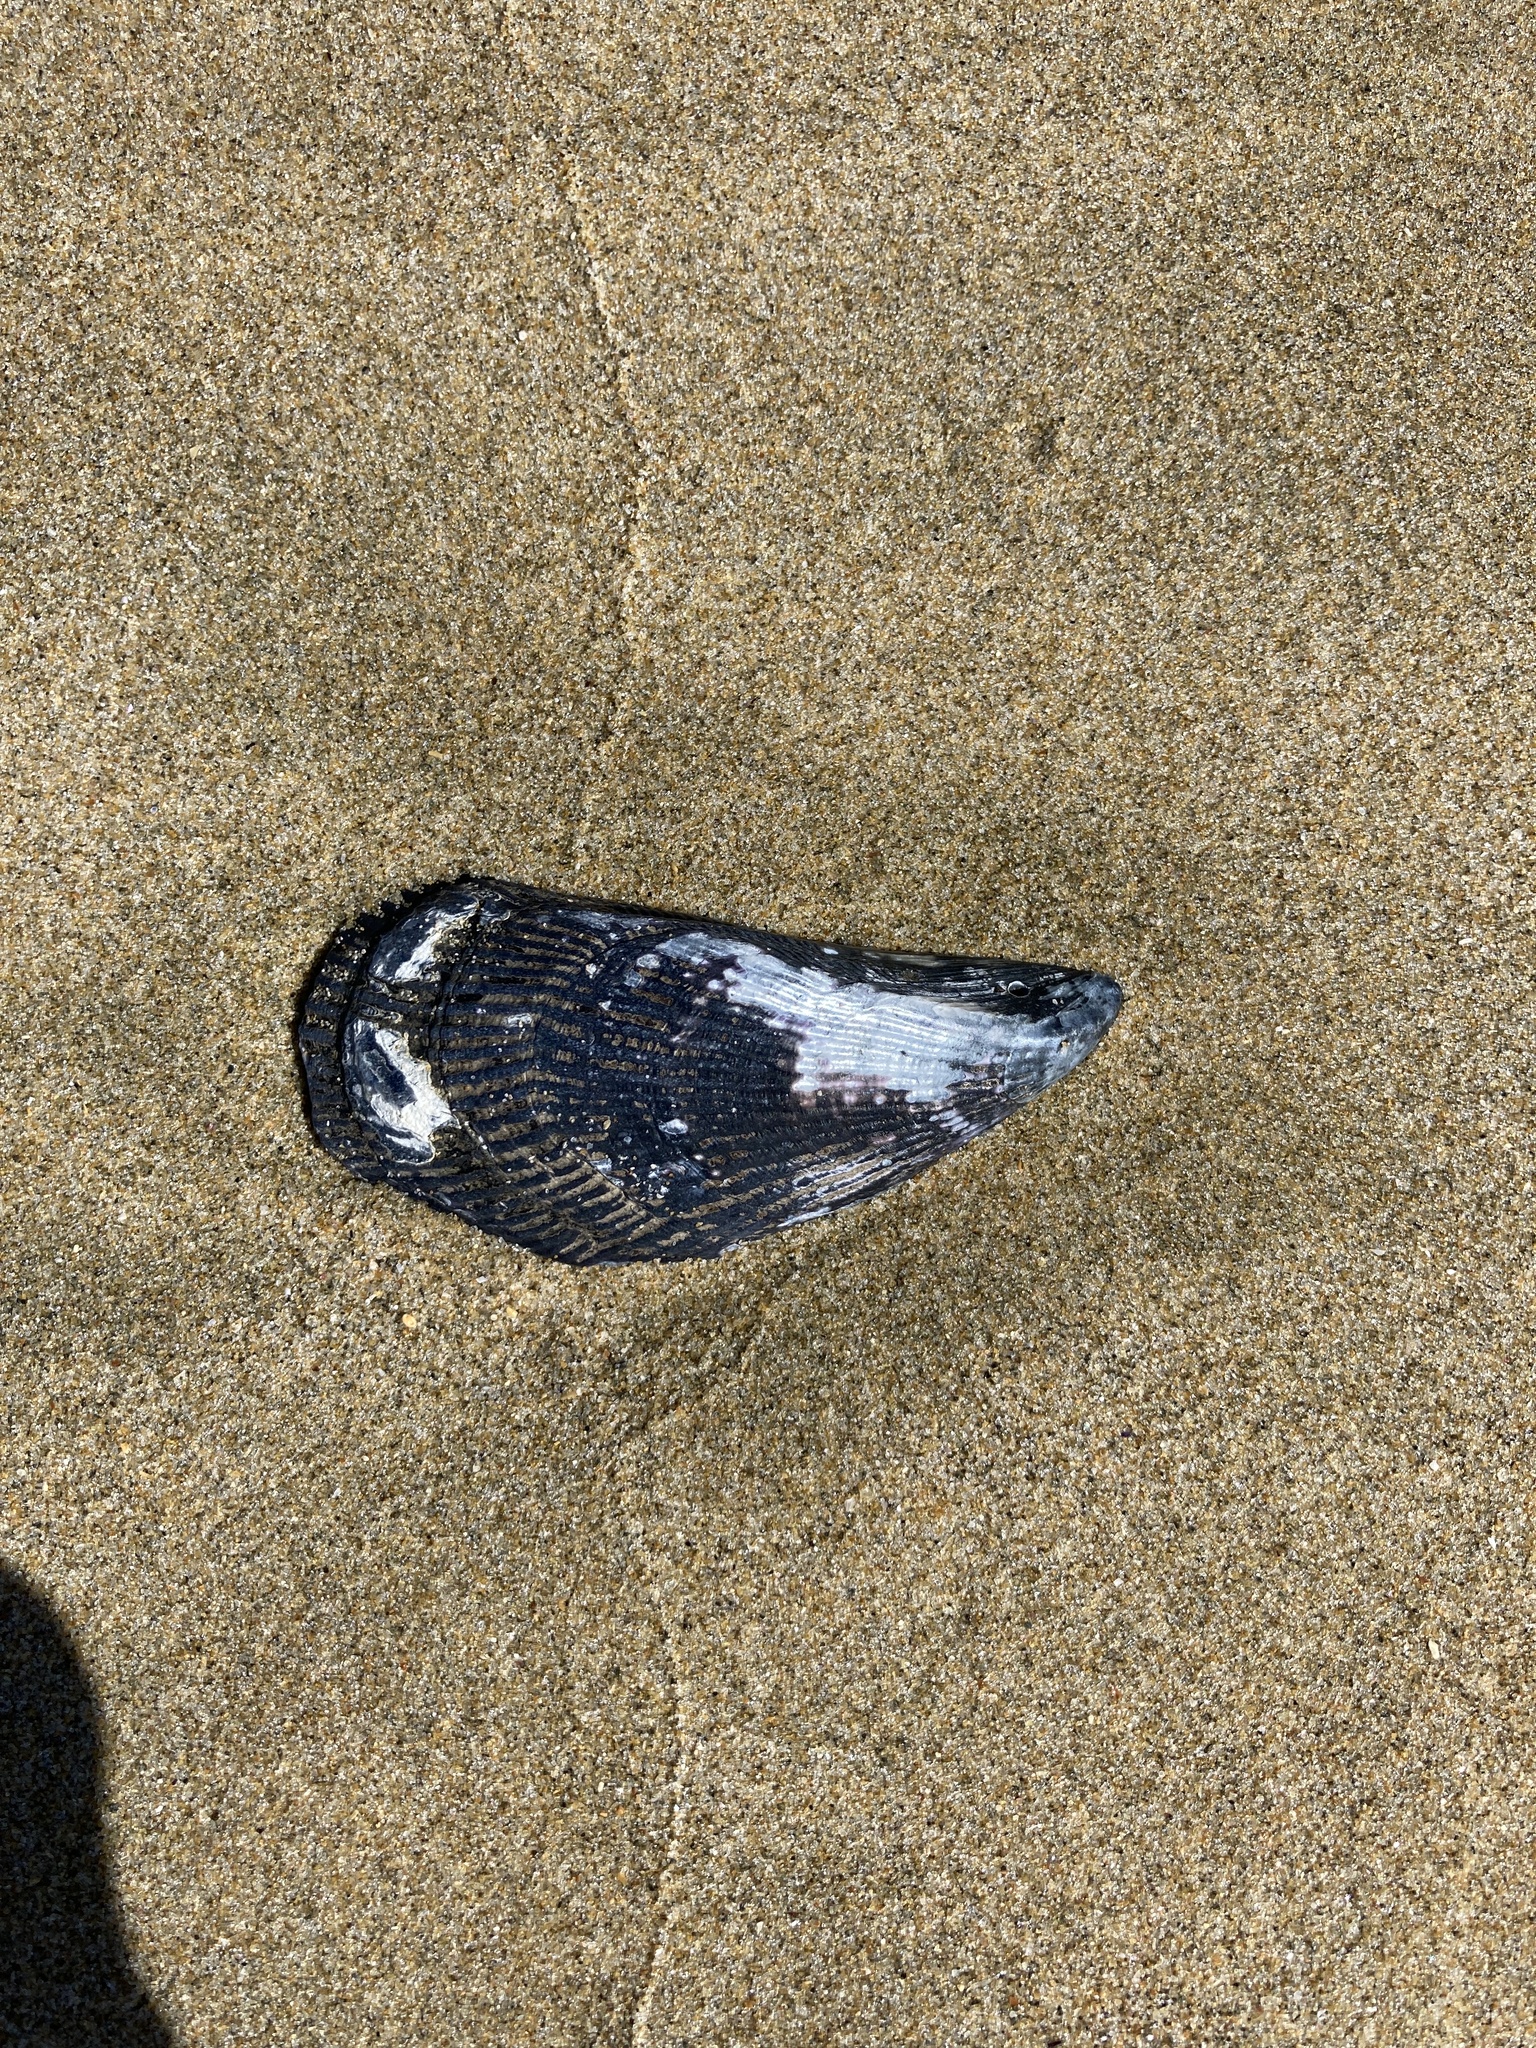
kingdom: Animalia
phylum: Mollusca
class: Bivalvia
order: Mytilida
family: Mytilidae
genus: Aulacomya
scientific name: Aulacomya maoriana
